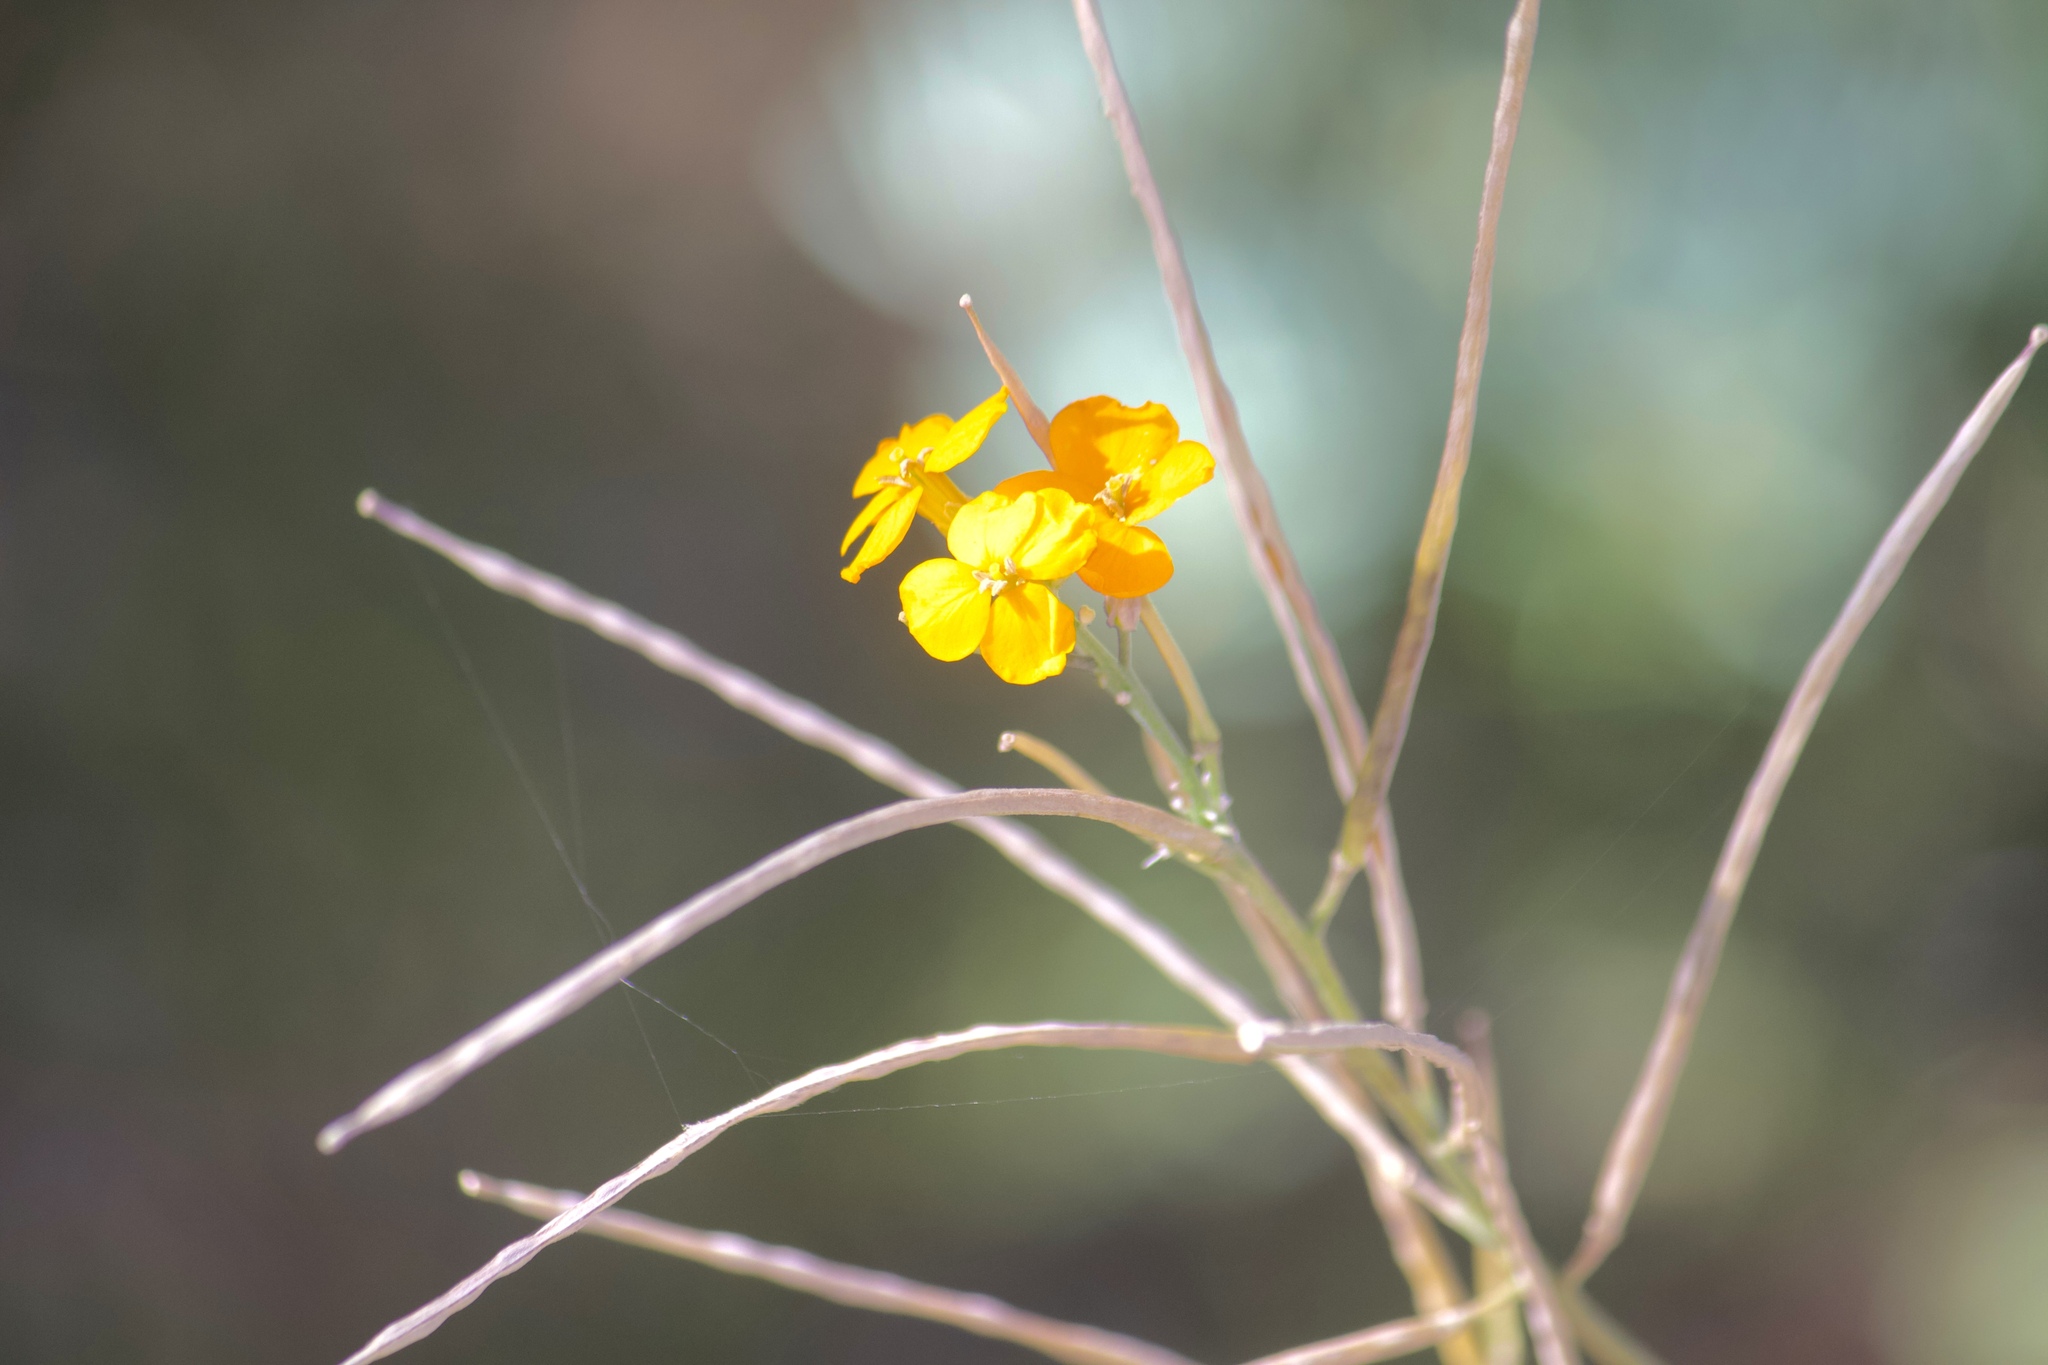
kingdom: Plantae
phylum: Tracheophyta
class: Magnoliopsida
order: Brassicales
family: Brassicaceae
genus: Erysimum
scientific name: Erysimum capitatum
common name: Western wallflower
